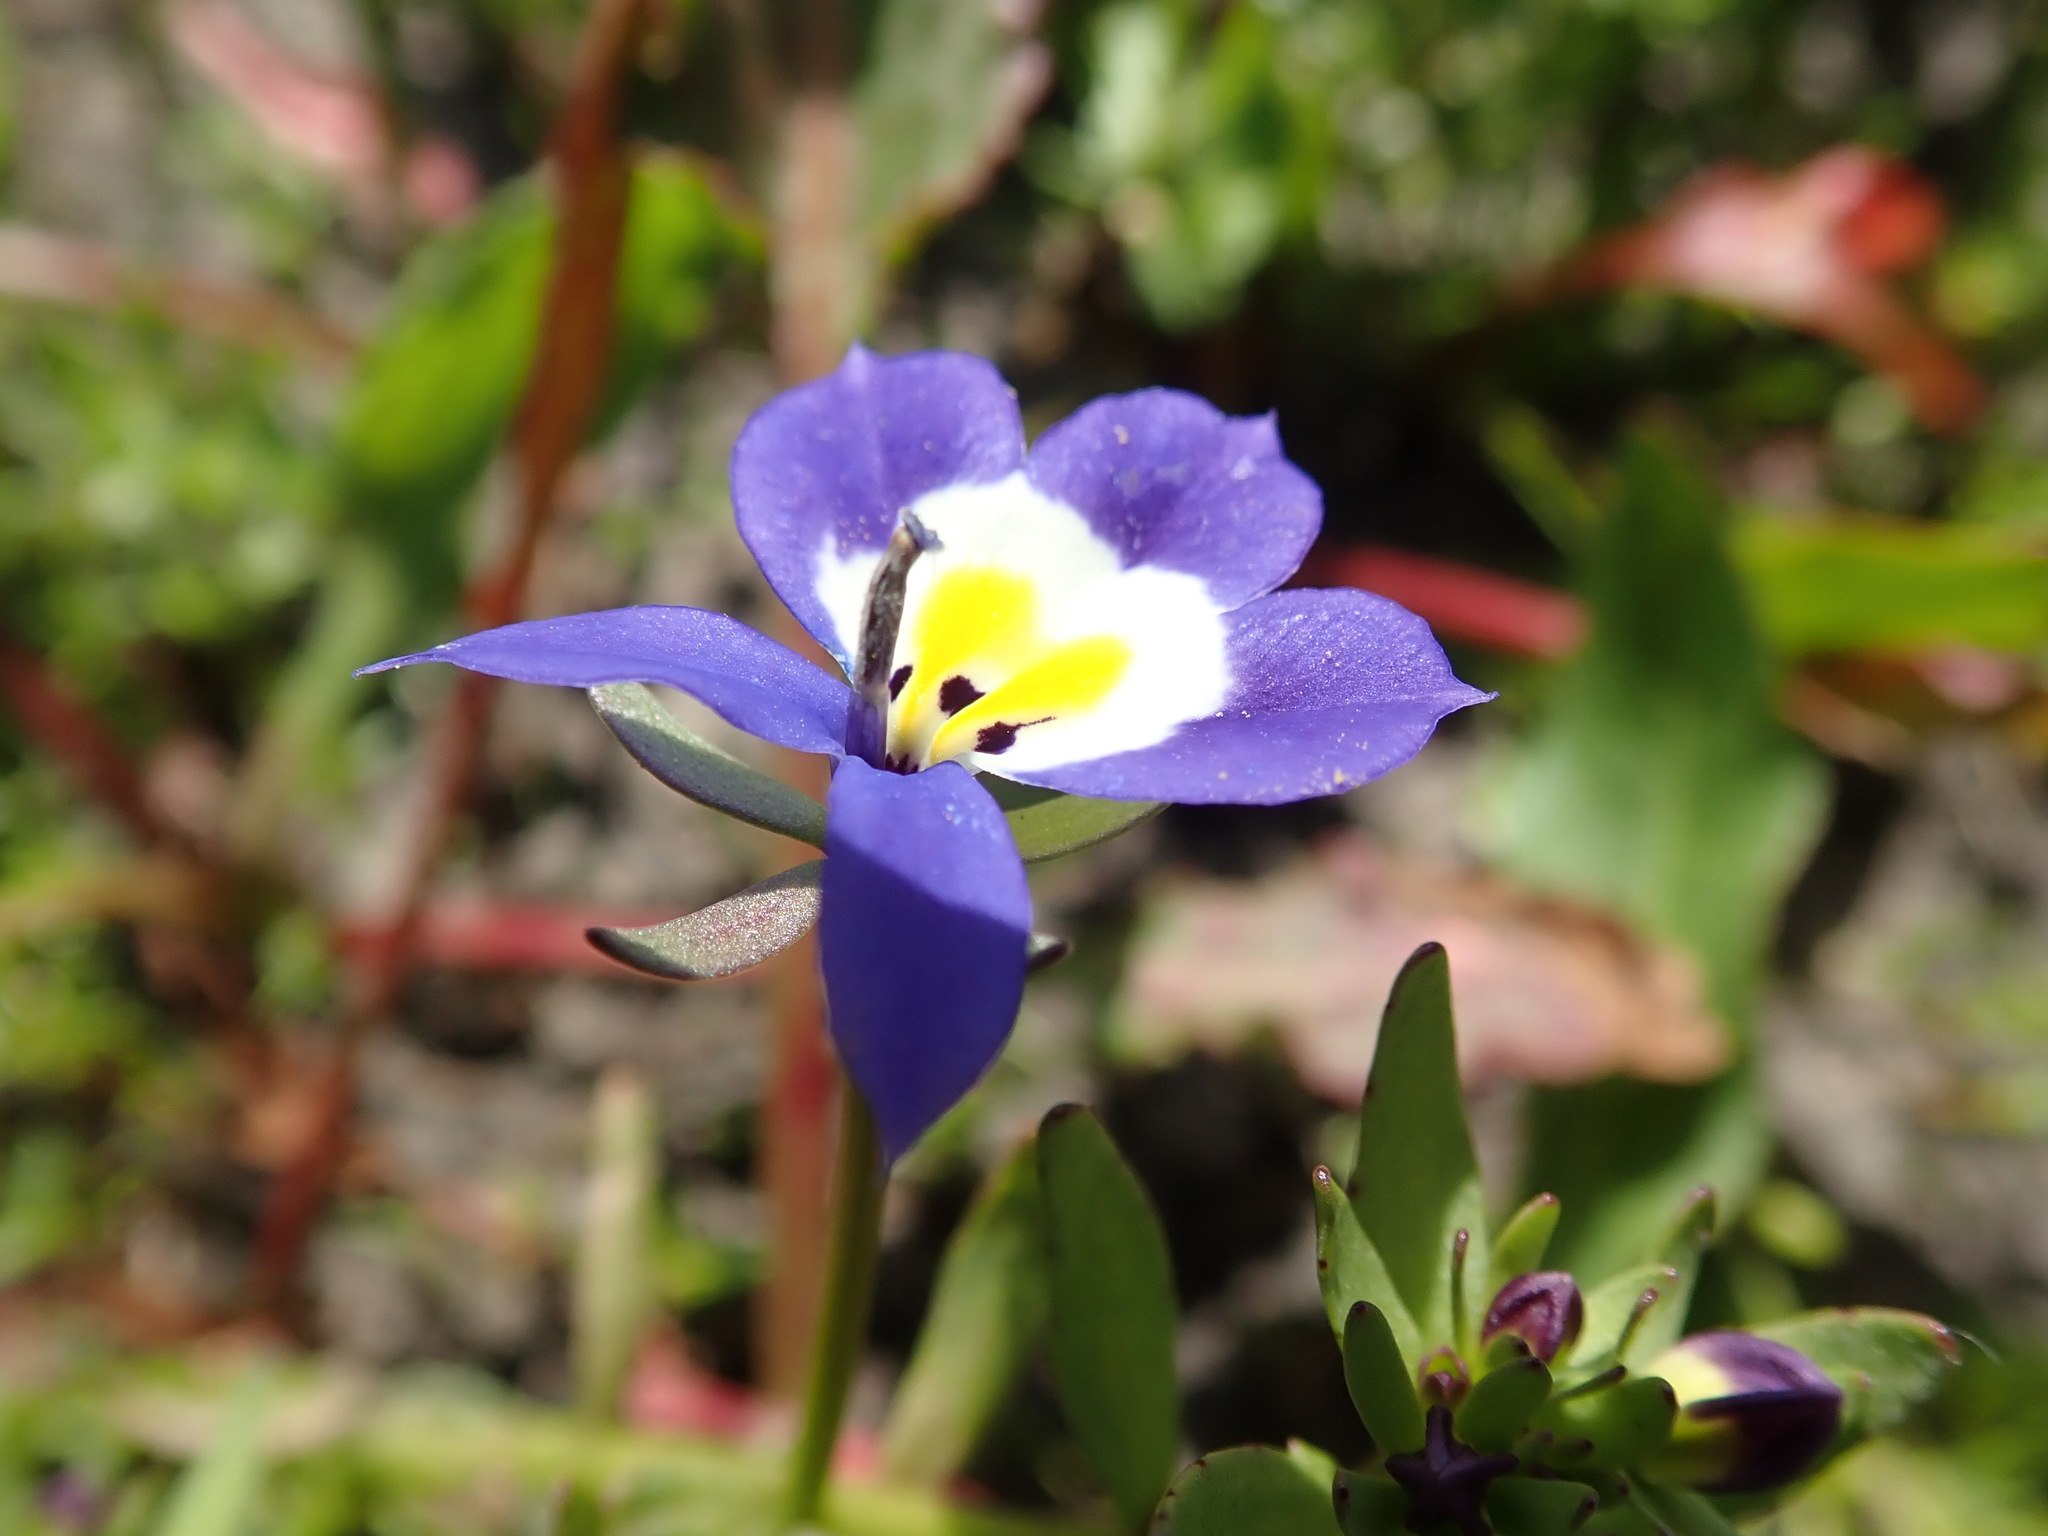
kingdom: Plantae
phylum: Tracheophyta
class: Magnoliopsida
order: Asterales
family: Campanulaceae
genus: Downingia
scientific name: Downingia pulchella
